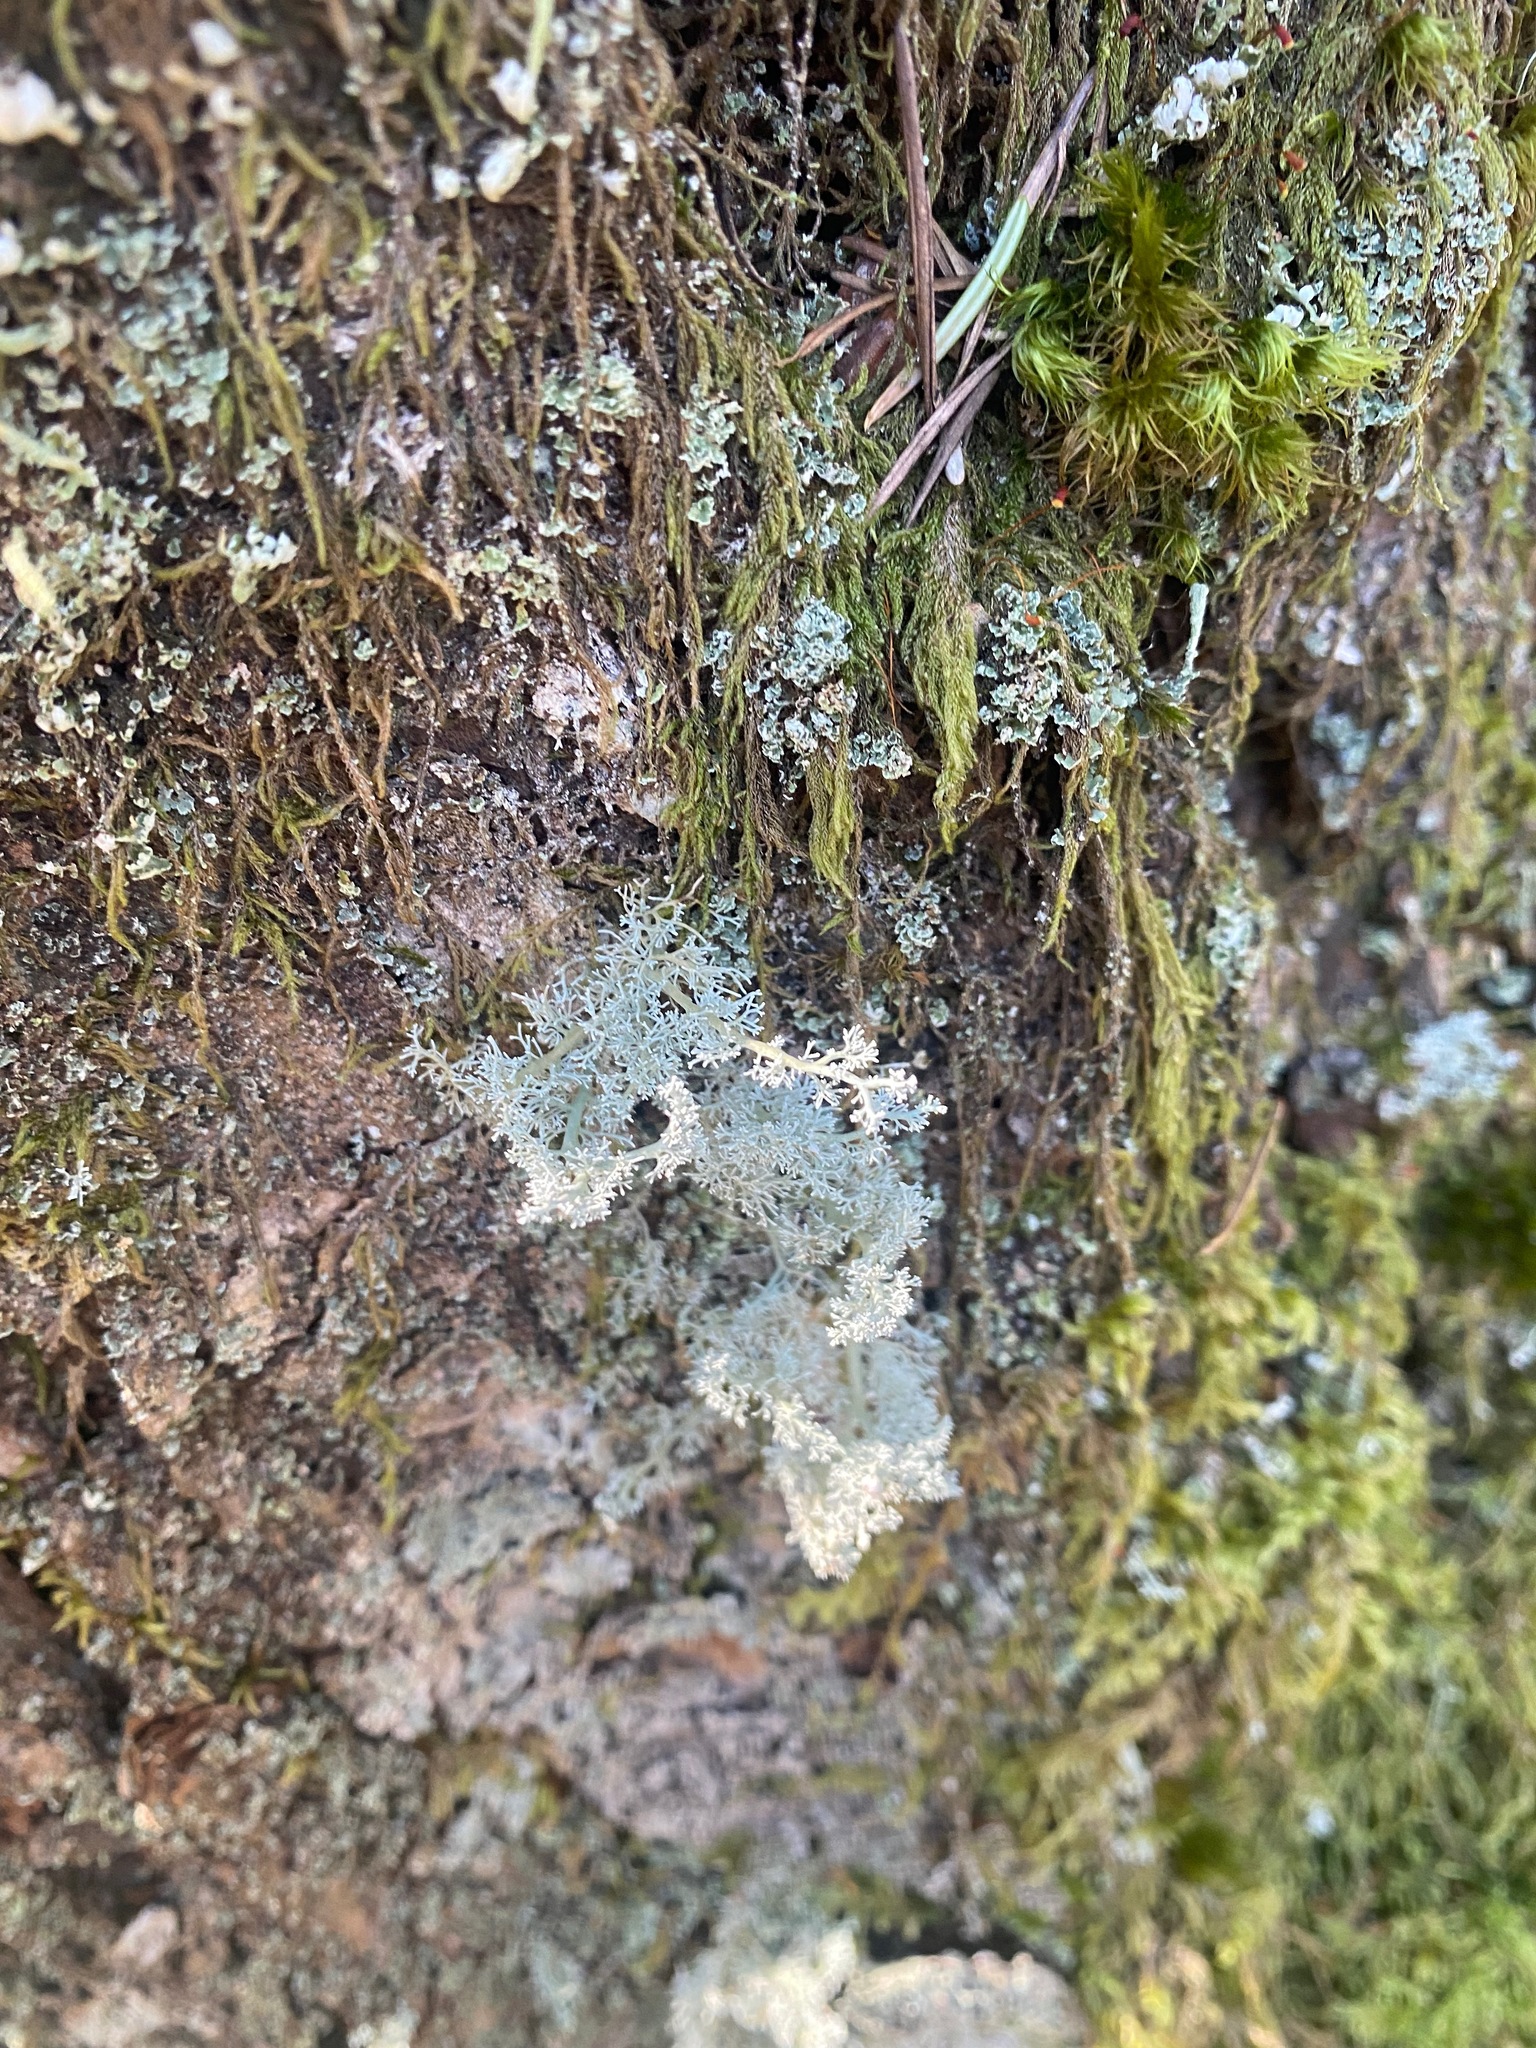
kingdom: Fungi
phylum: Ascomycota
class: Lecanoromycetes
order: Lecanorales
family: Sphaerophoraceae
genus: Sphaerophorus
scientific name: Sphaerophorus globosus
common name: Globe ball lichen
